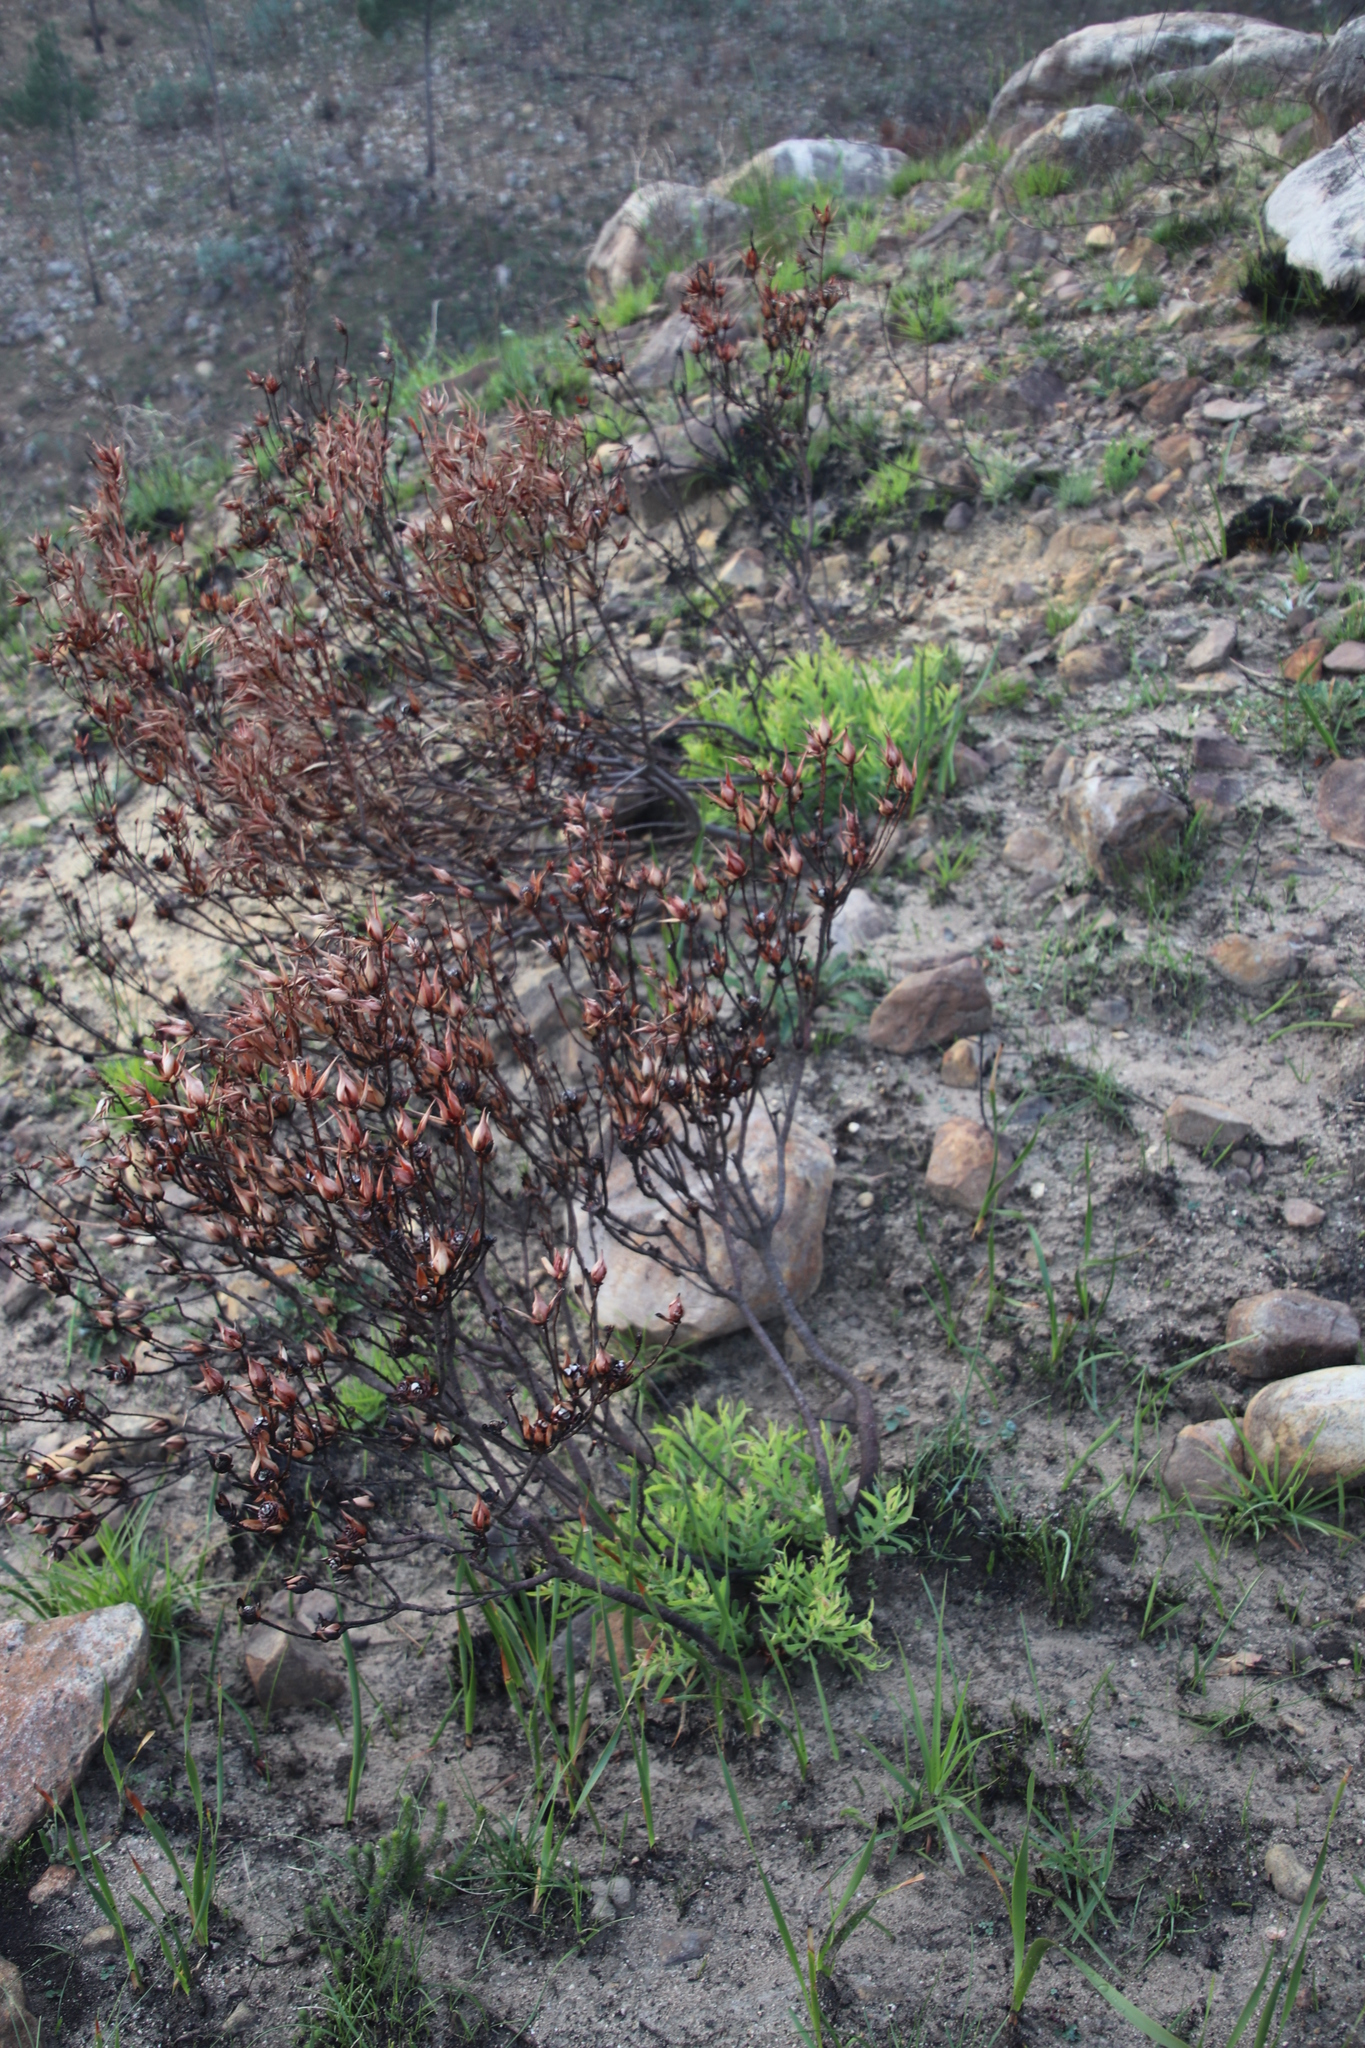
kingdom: Plantae
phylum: Tracheophyta
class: Magnoliopsida
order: Proteales
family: Proteaceae
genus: Leucadendron
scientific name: Leucadendron salignum
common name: Common sunshine conebush
